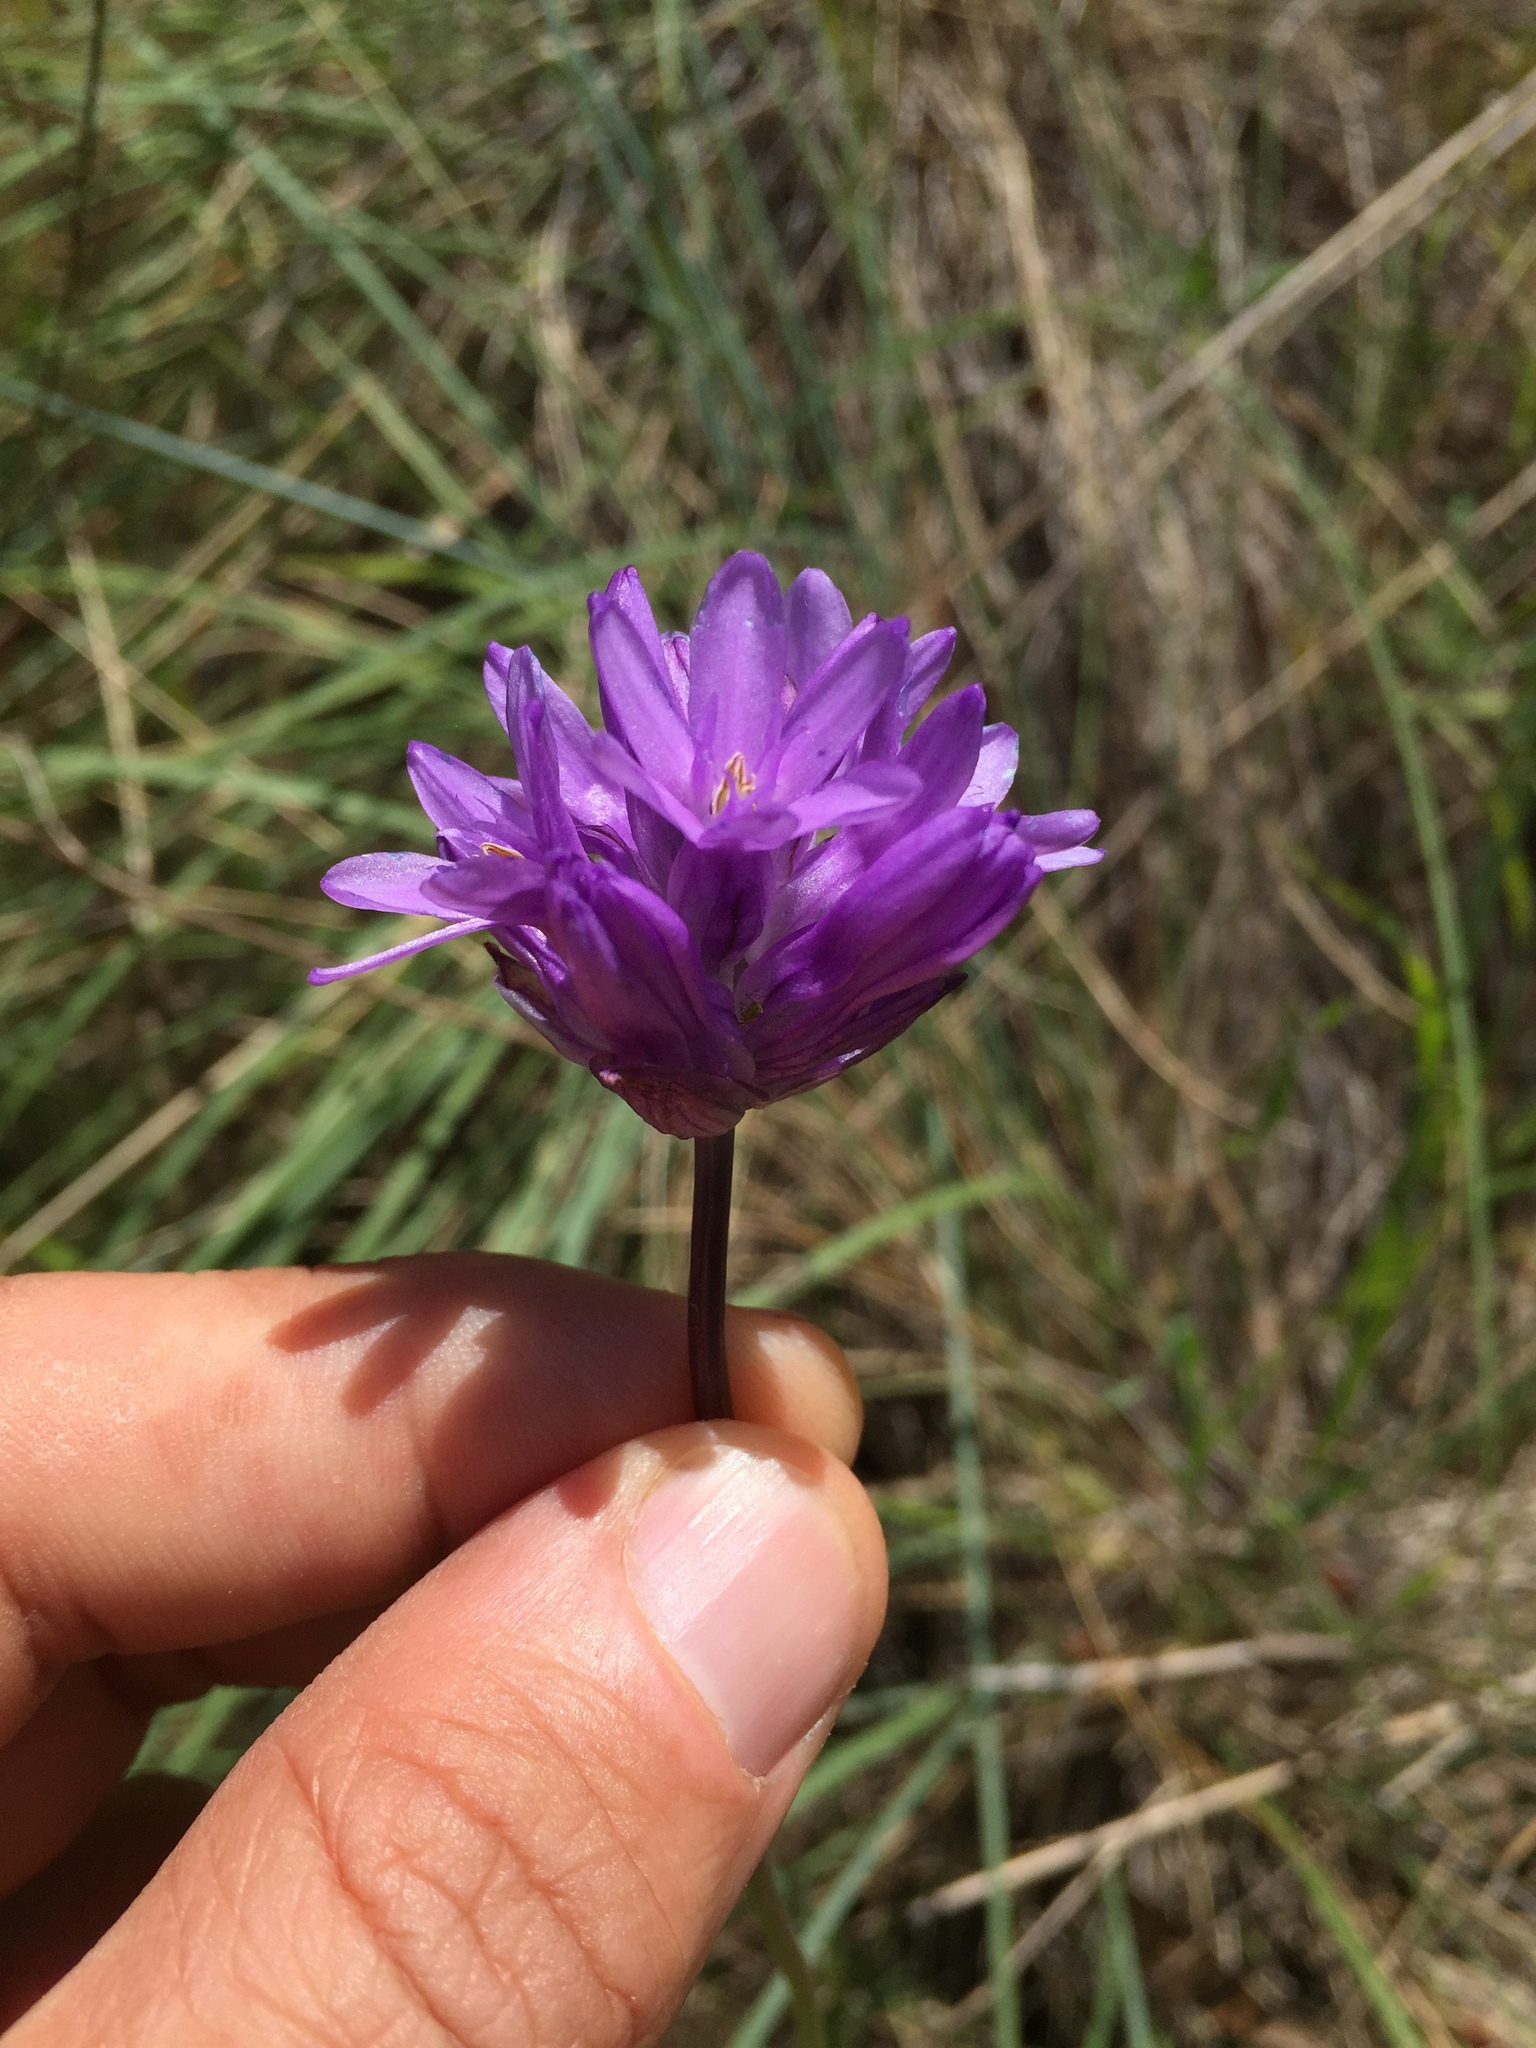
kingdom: Plantae
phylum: Tracheophyta
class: Liliopsida
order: Asparagales
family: Asparagaceae
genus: Dichelostemma
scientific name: Dichelostemma congestum
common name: Fork-tooth ookow
